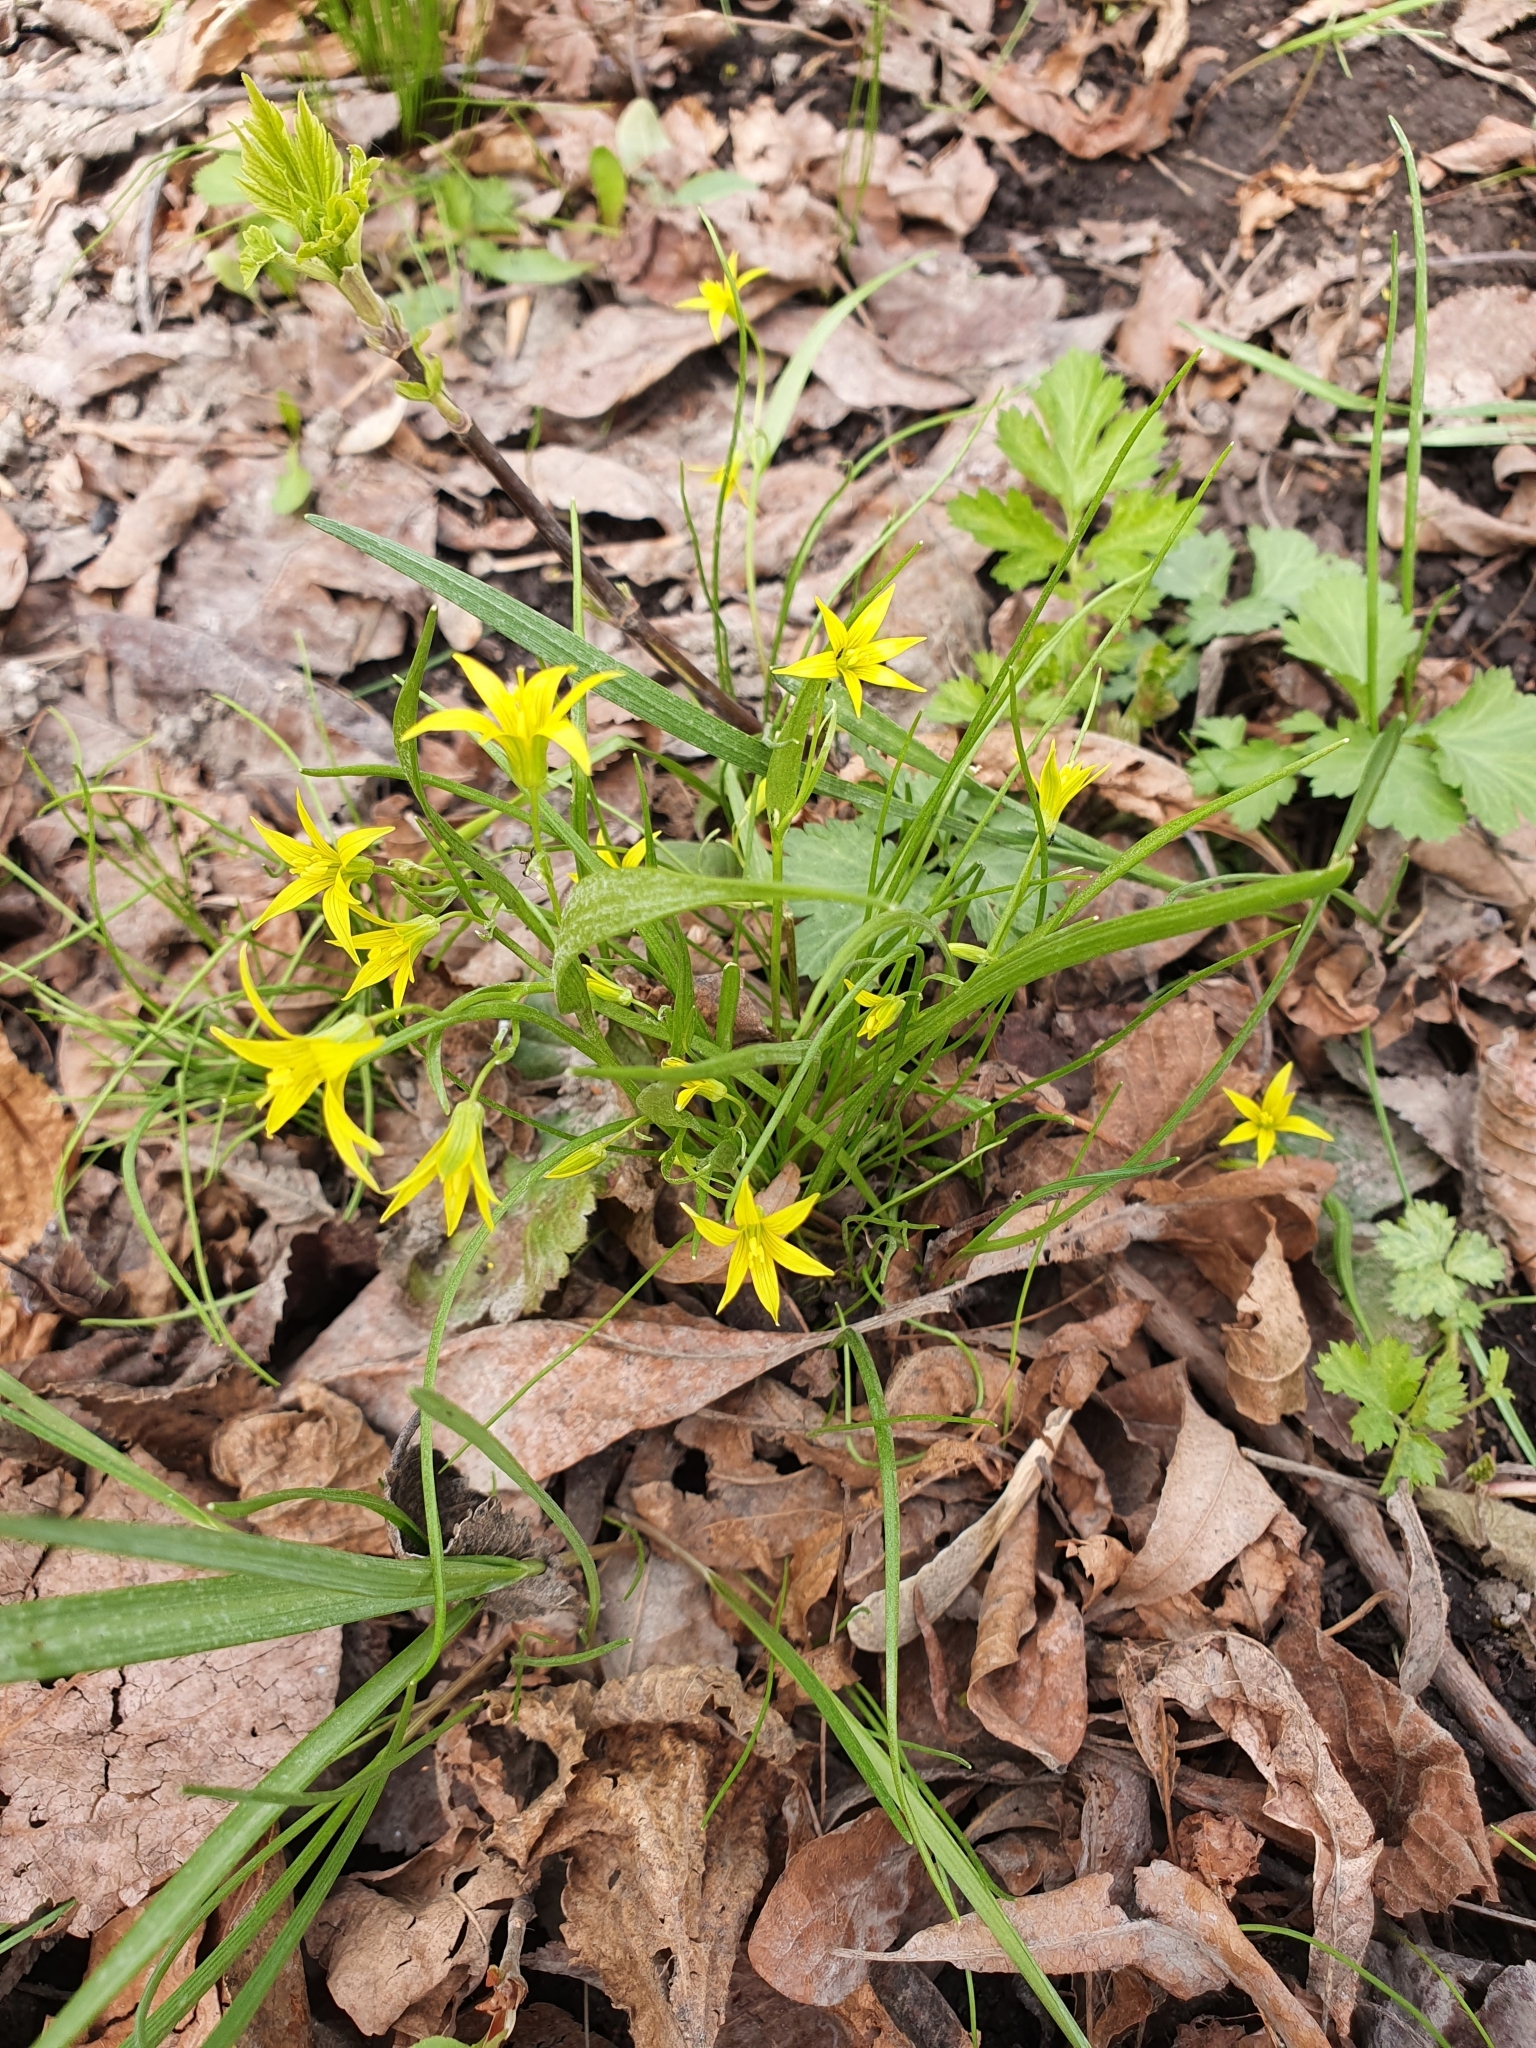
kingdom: Plantae
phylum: Tracheophyta
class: Liliopsida
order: Liliales
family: Liliaceae
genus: Gagea
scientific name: Gagea minima
